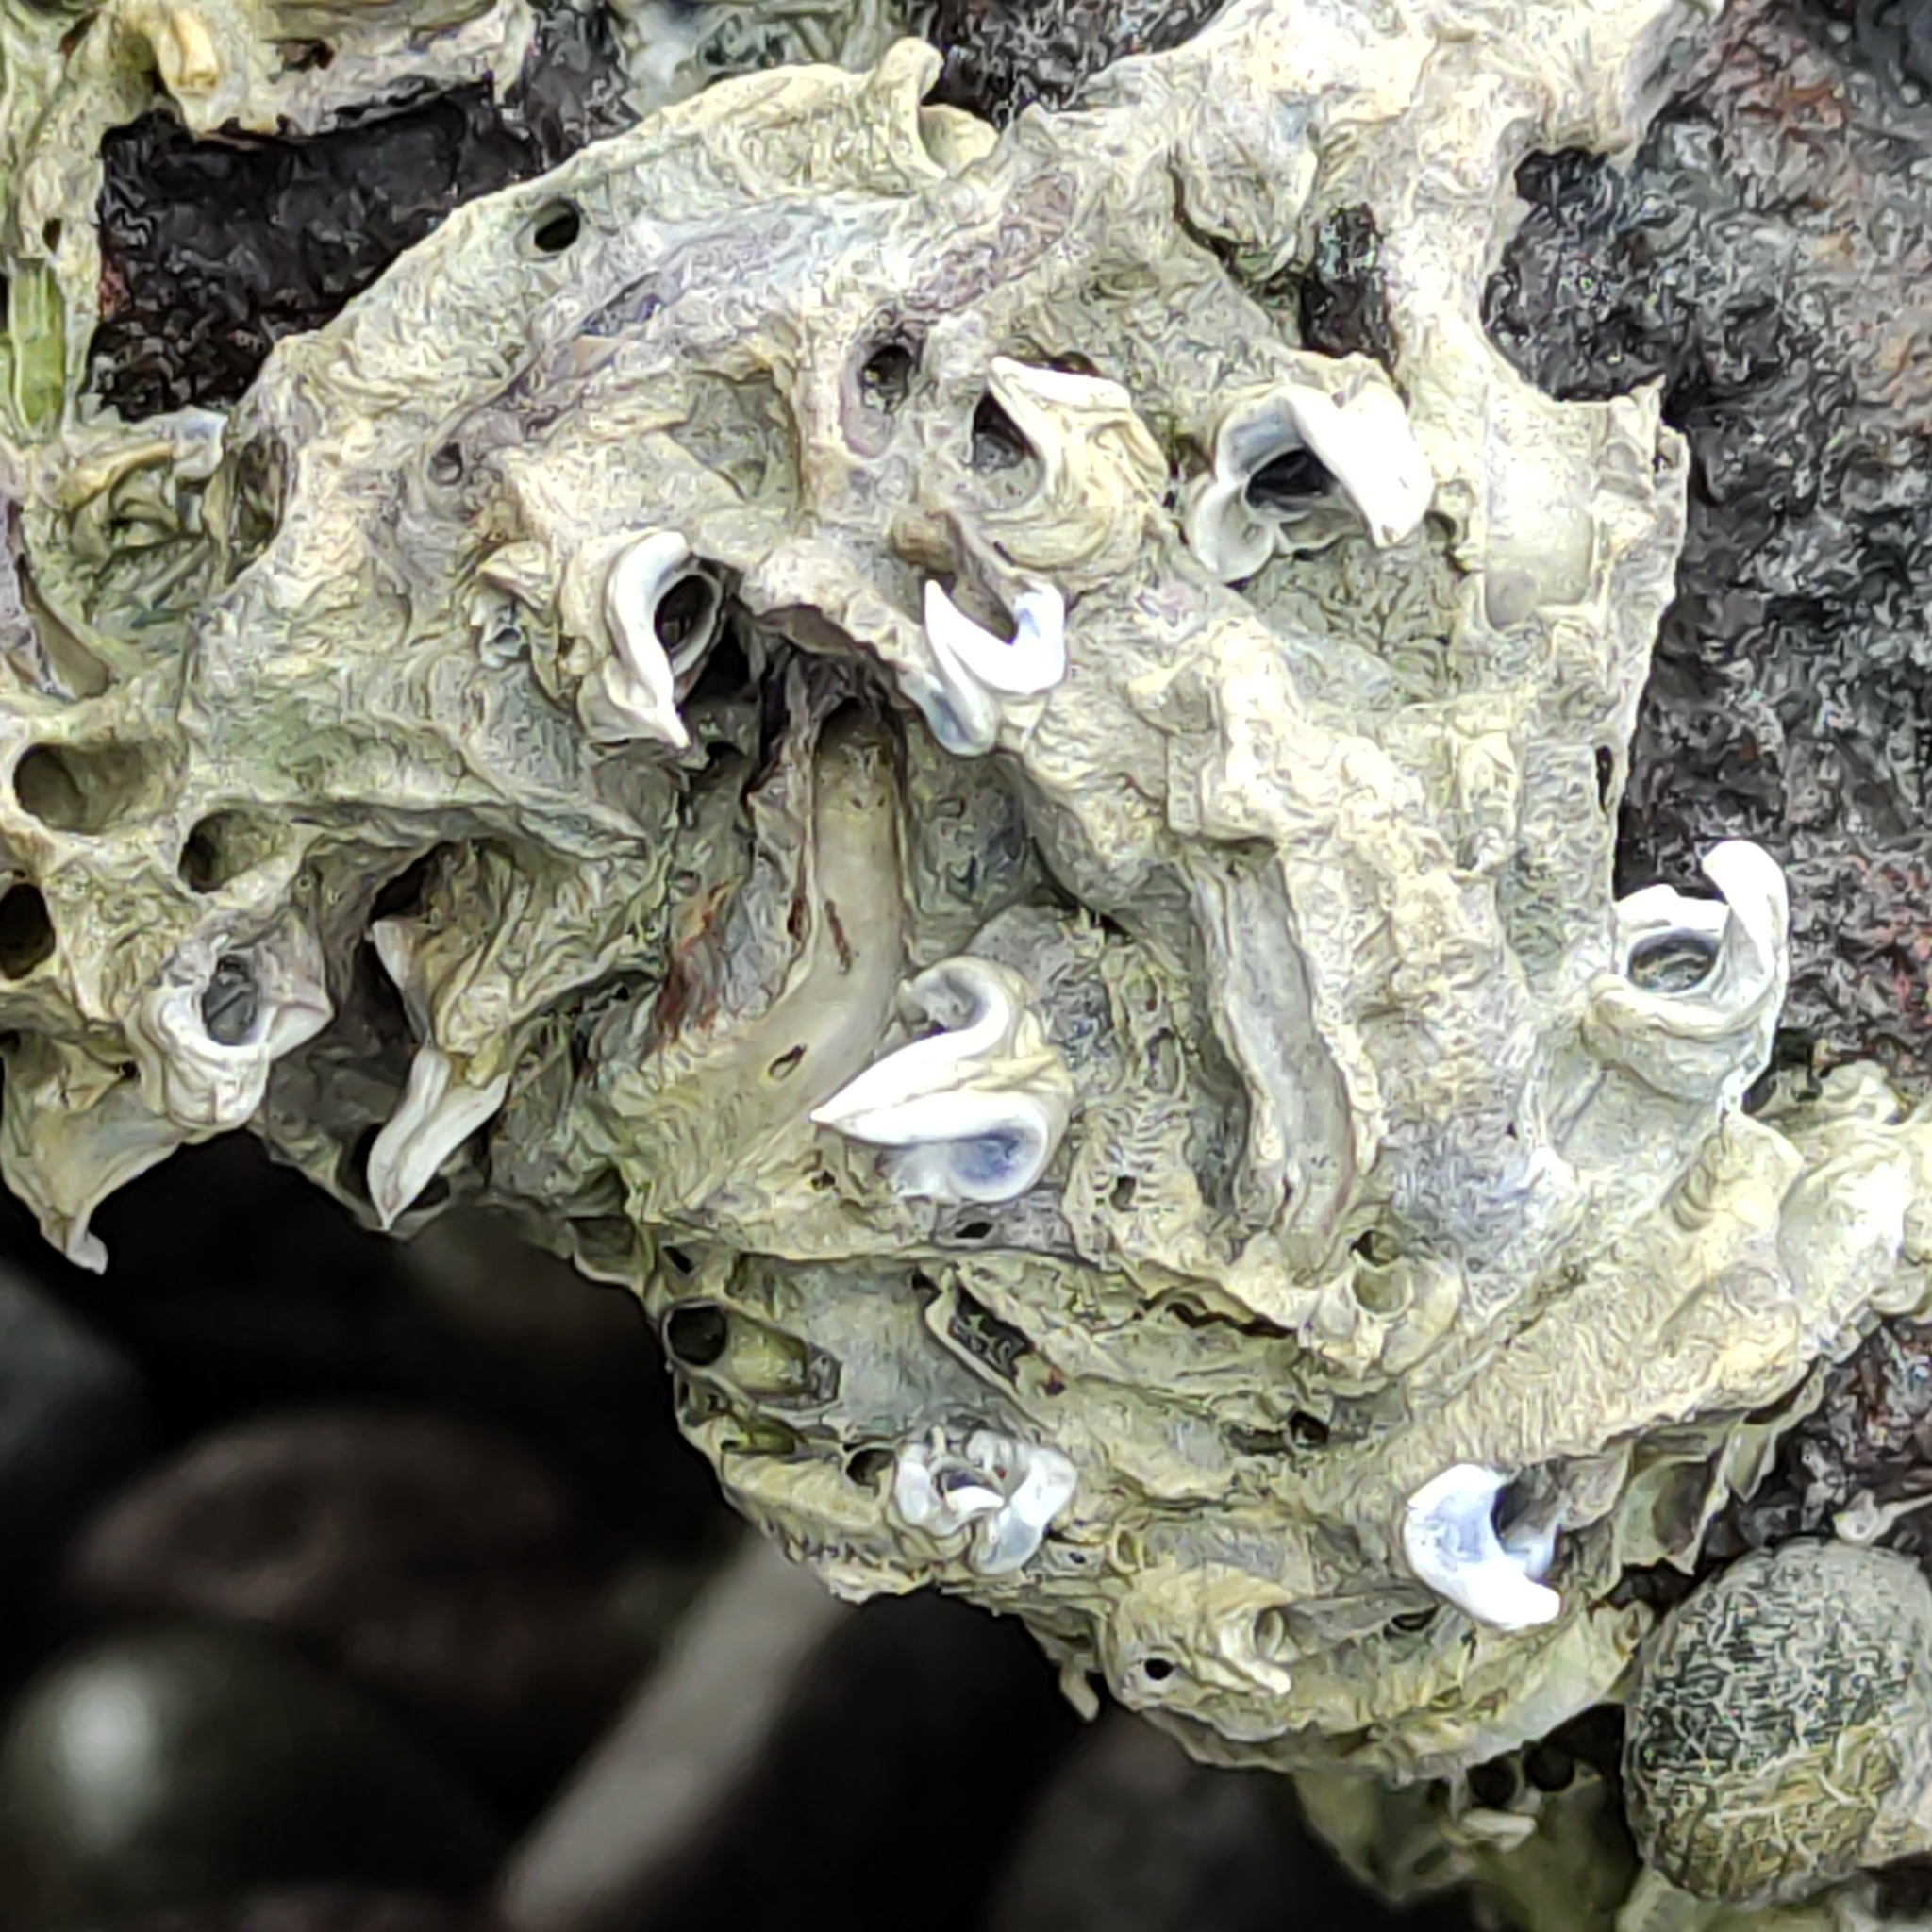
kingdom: Animalia
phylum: Annelida
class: Polychaeta
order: Sabellida
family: Serpulidae
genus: Spirobranchus
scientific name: Spirobranchus cariniferus
